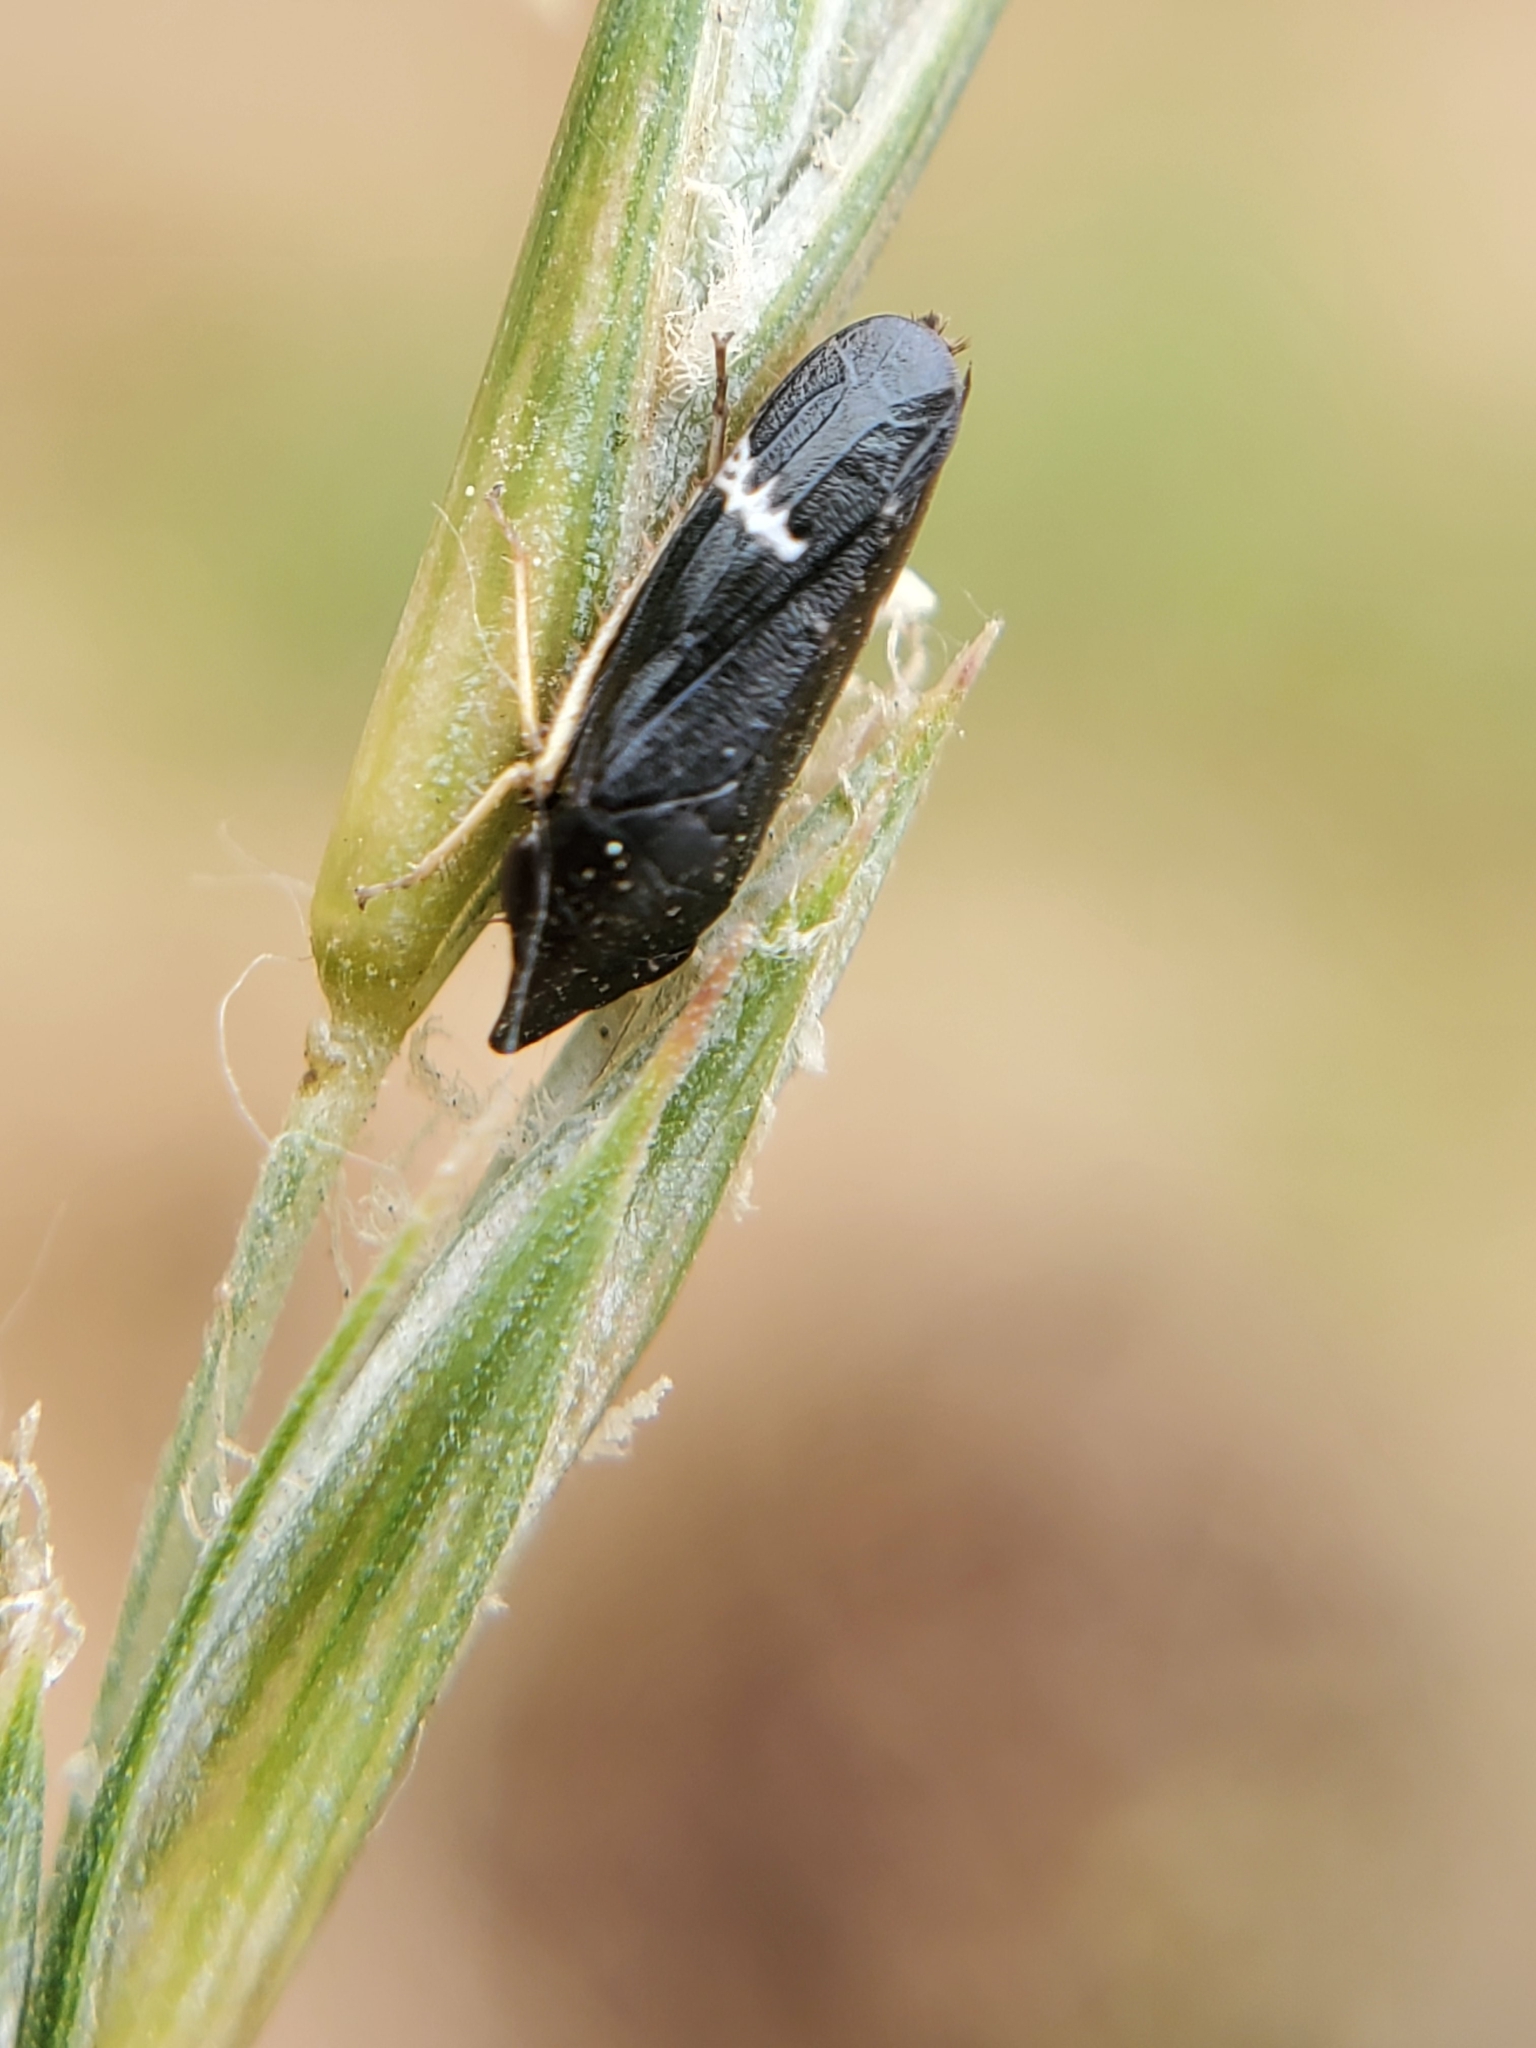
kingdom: Animalia
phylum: Arthropoda
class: Insecta
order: Hemiptera
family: Cicadellidae
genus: Cochlorhinus
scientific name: Cochlorhinus pluto
